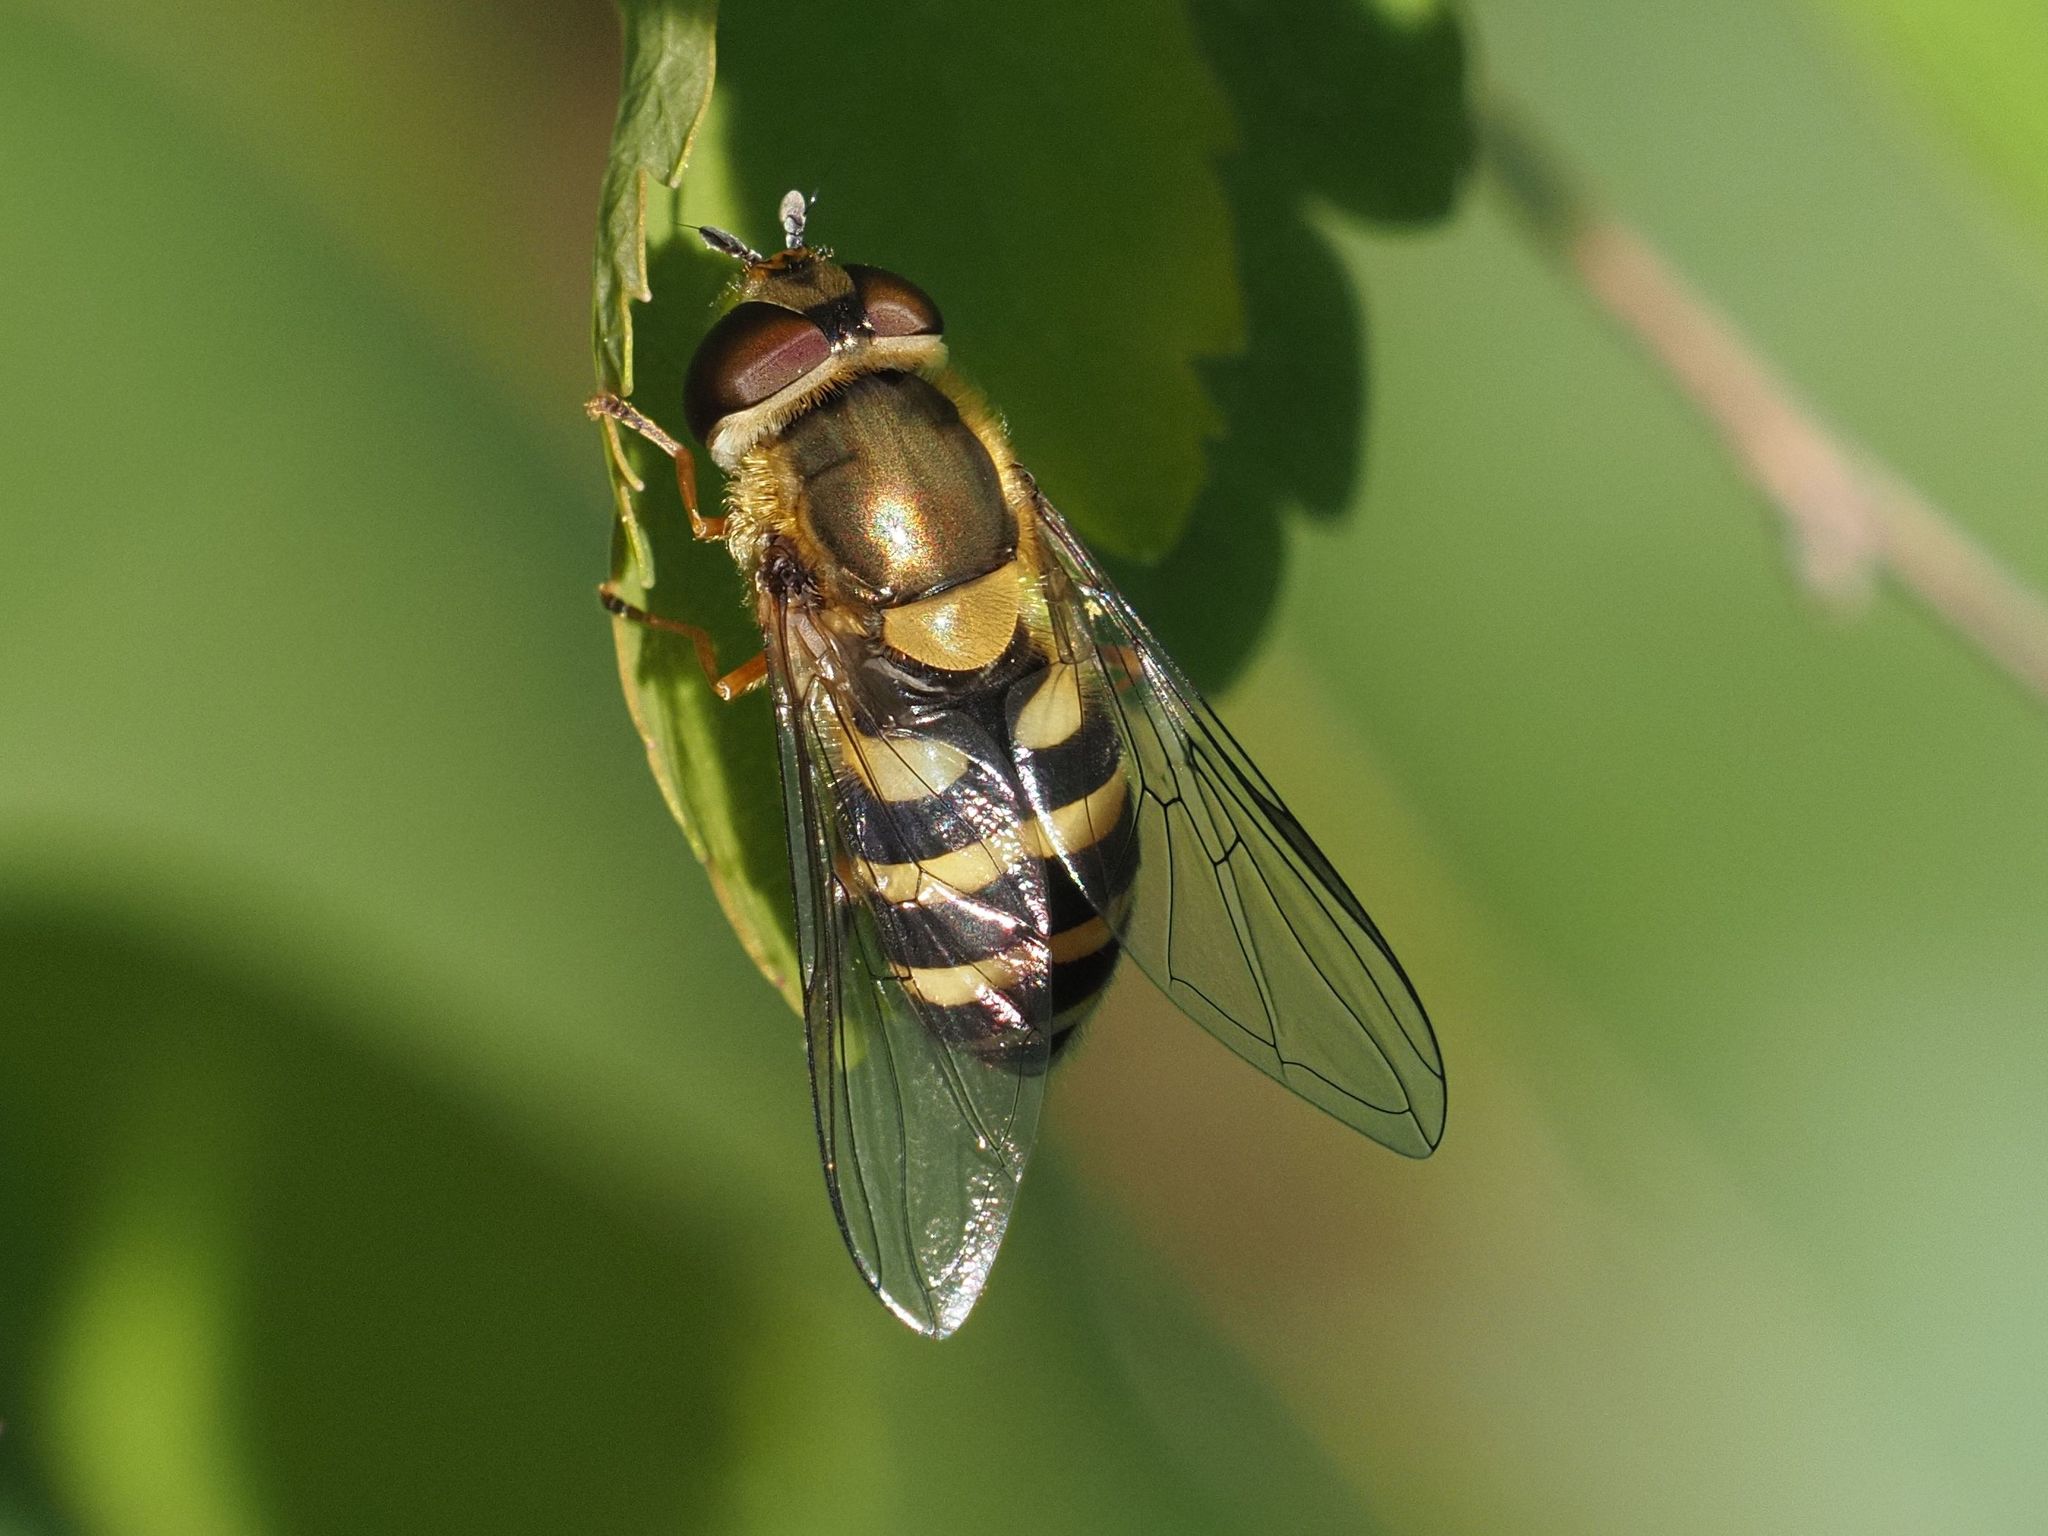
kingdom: Animalia
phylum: Arthropoda
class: Insecta
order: Diptera
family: Syrphidae
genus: Syrphus
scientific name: Syrphus
